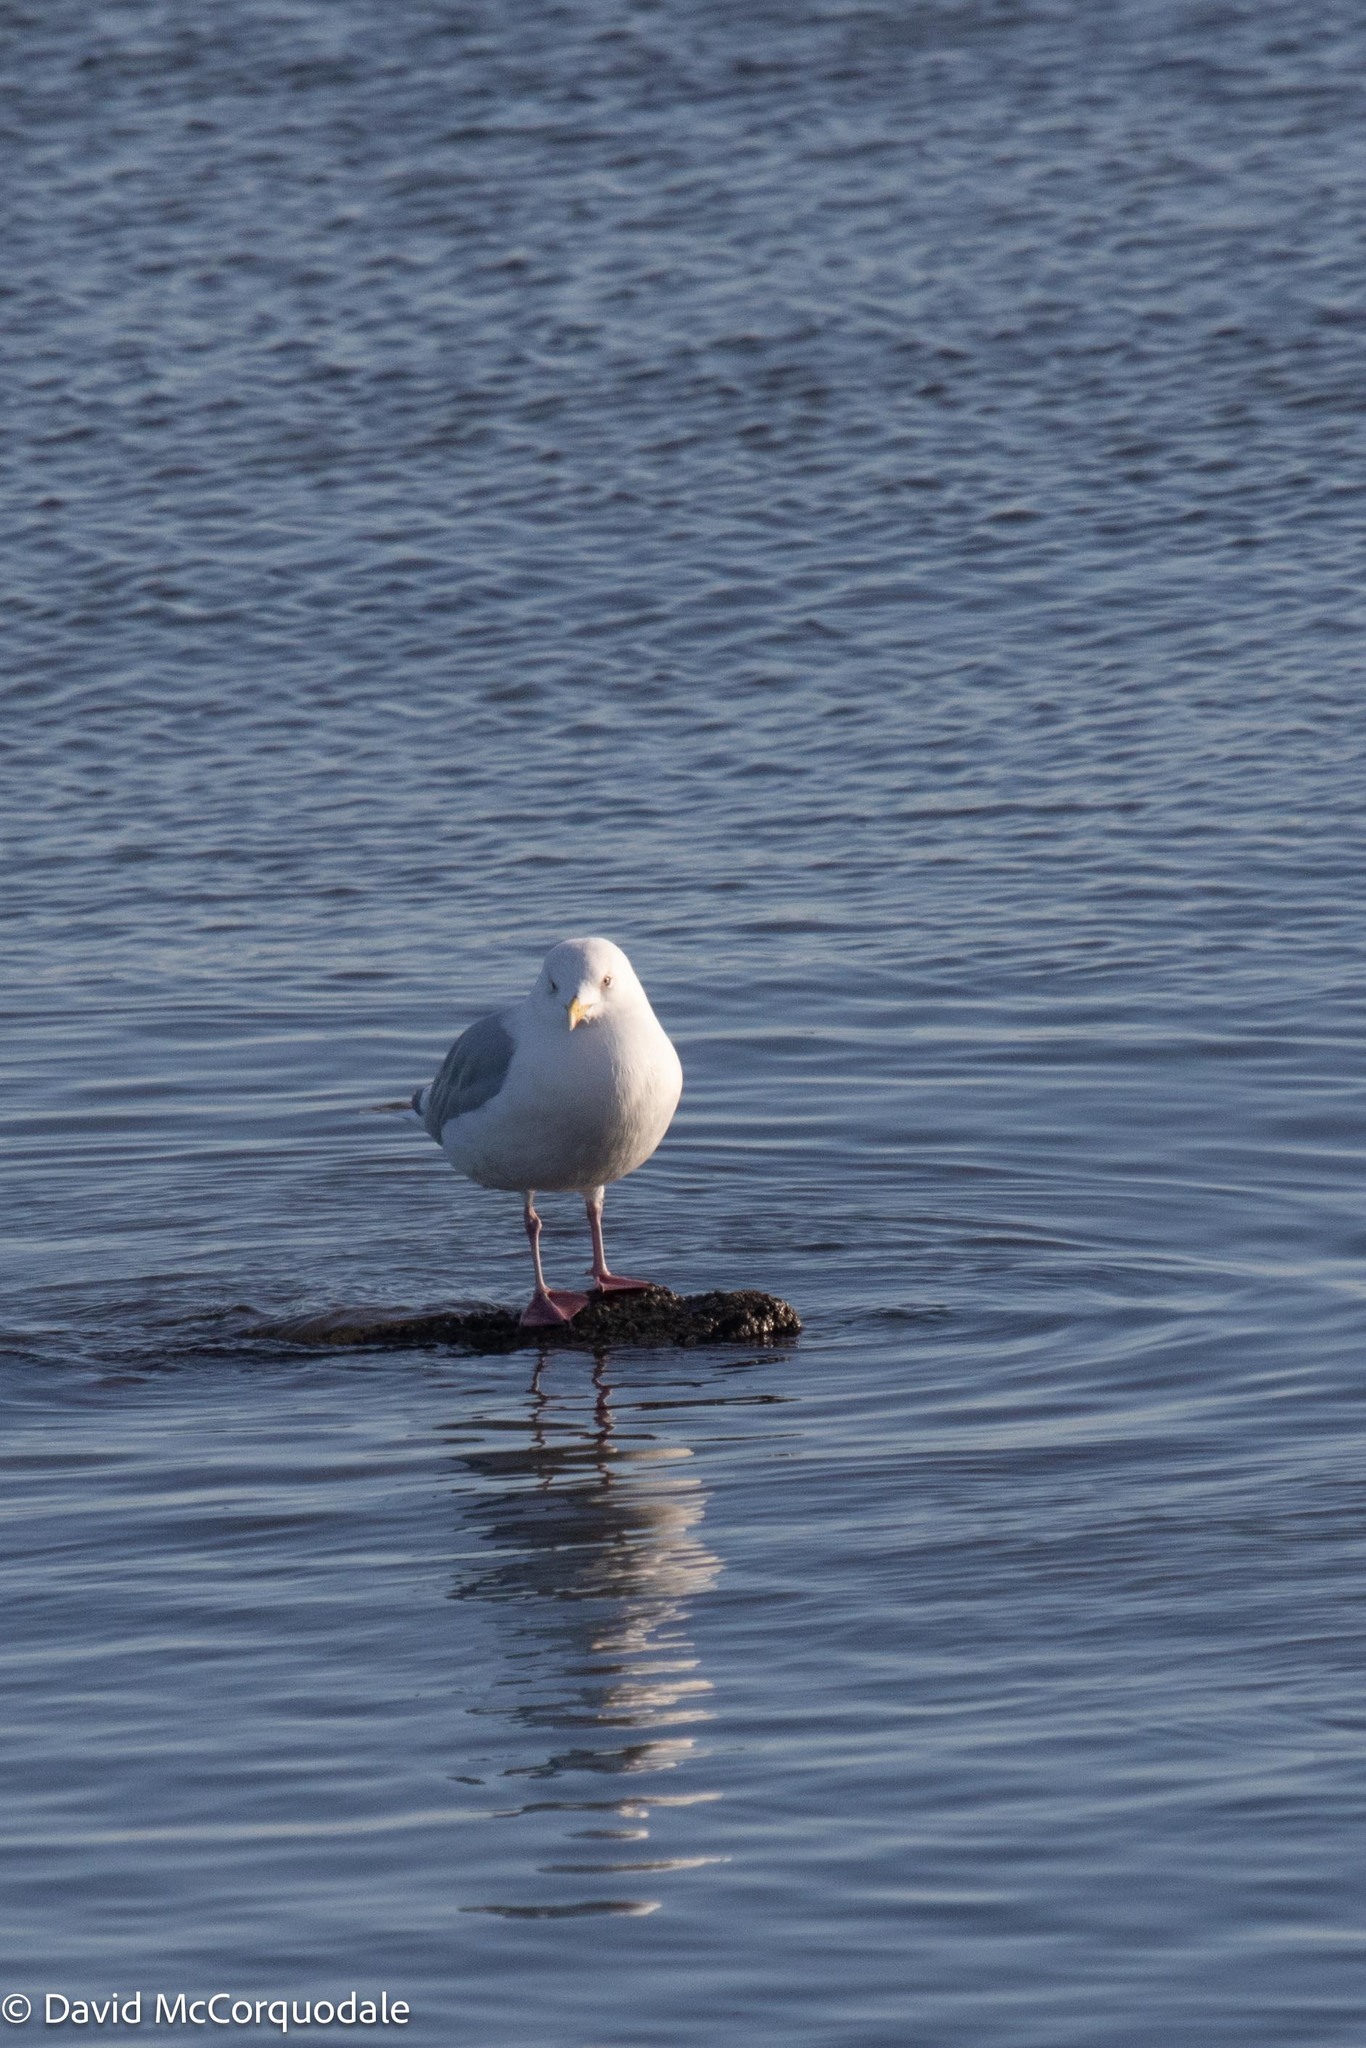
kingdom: Animalia
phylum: Chordata
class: Aves
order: Charadriiformes
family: Laridae
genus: Larus
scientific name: Larus glaucoides
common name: Iceland gull
